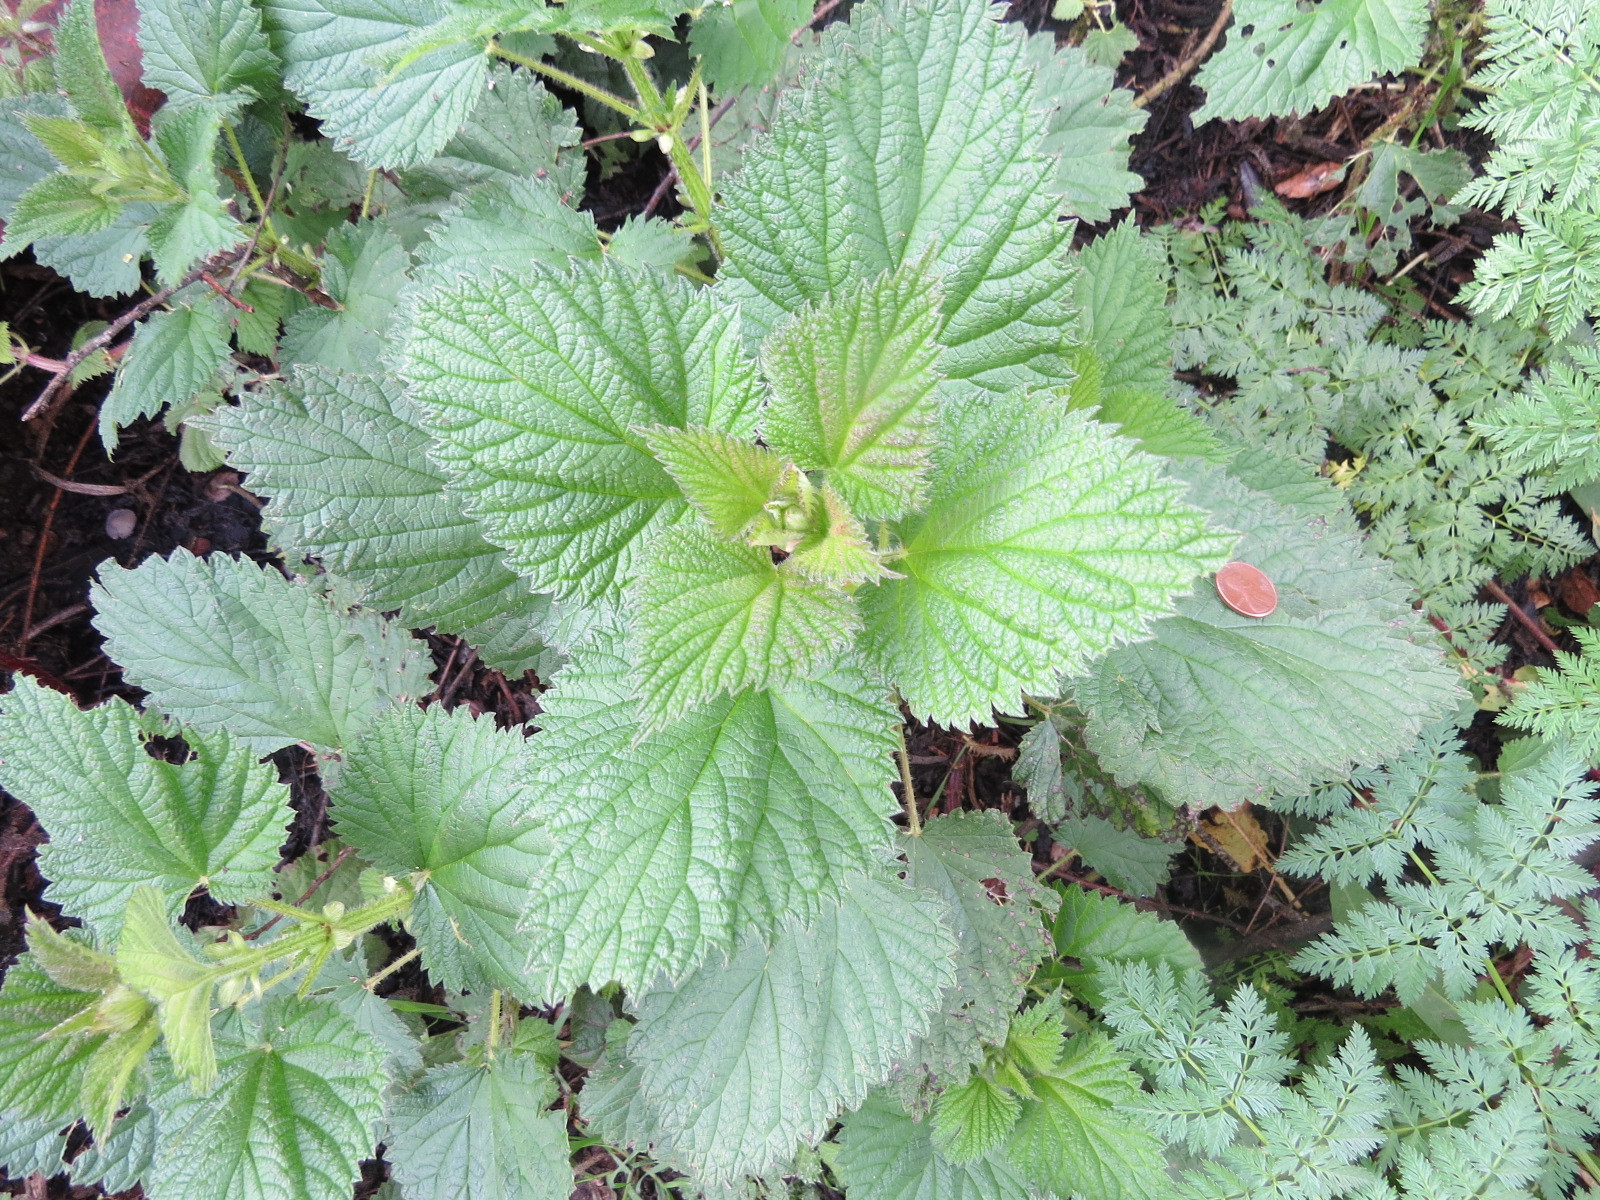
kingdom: Plantae
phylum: Tracheophyta
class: Magnoliopsida
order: Rosales
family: Urticaceae
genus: Urtica
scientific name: Urtica gracilis
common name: Slender stinging nettle
